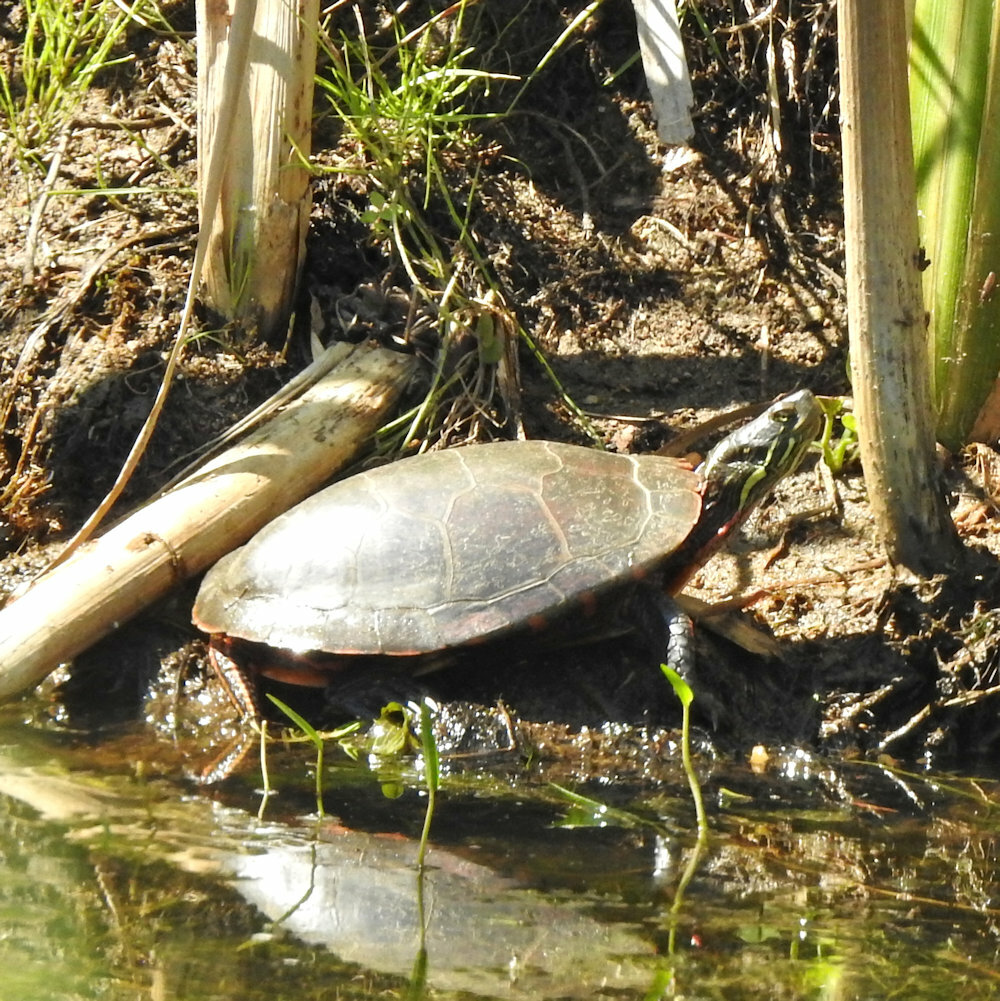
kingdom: Animalia
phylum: Chordata
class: Testudines
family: Emydidae
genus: Chrysemys
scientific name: Chrysemys picta
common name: Painted turtle
